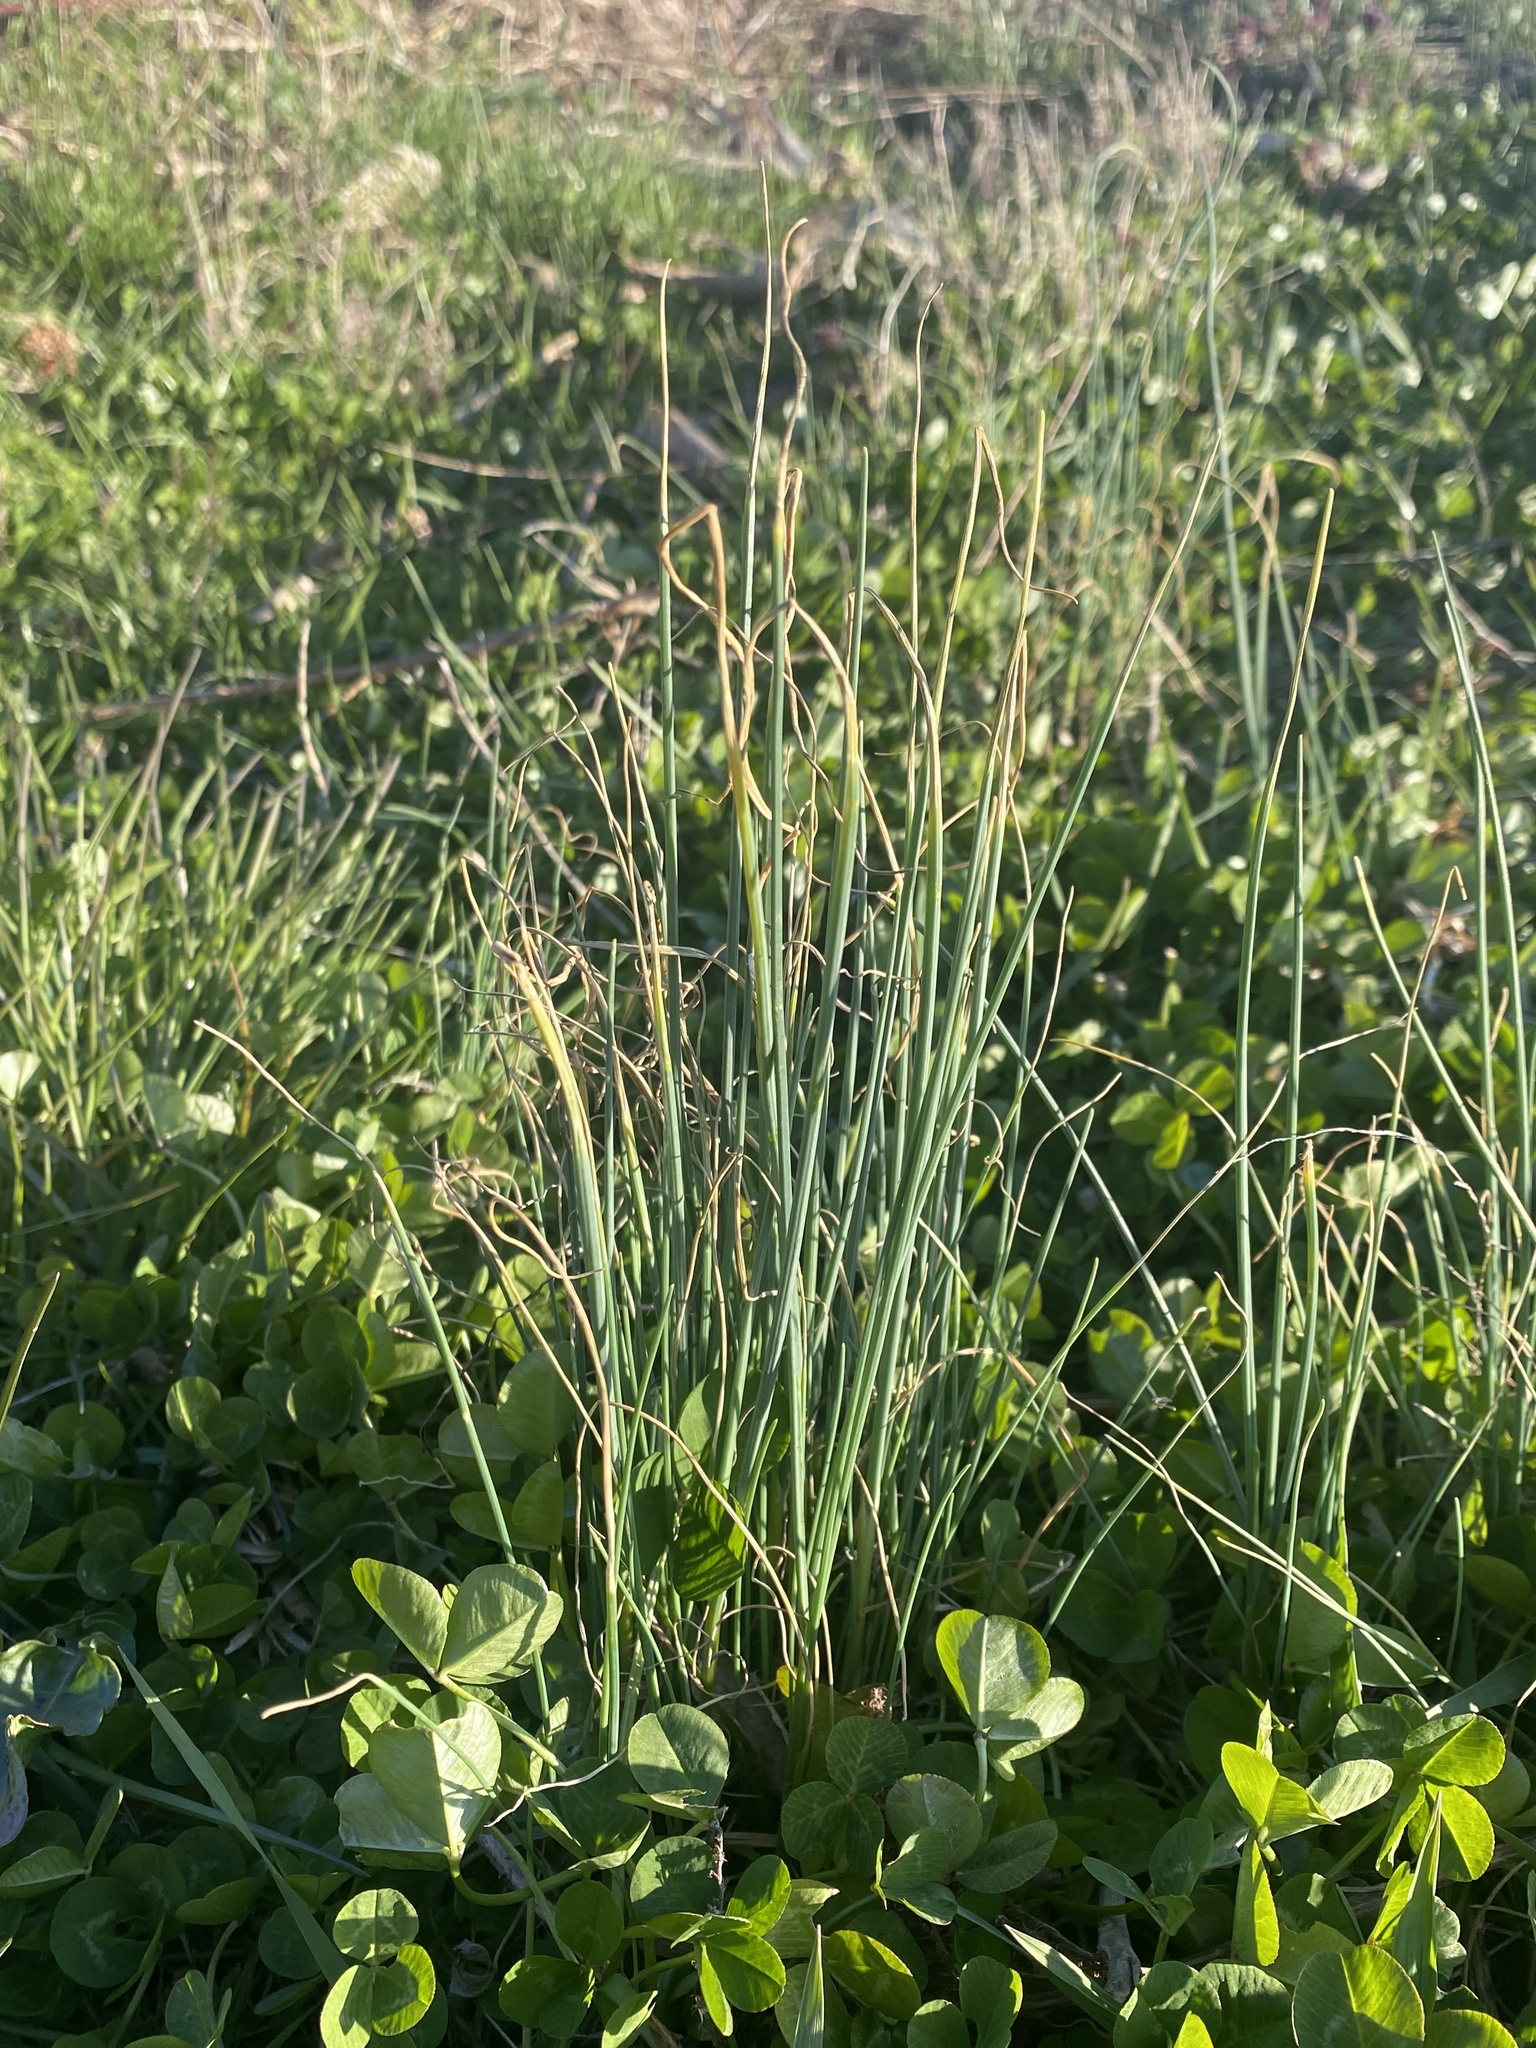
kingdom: Plantae
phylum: Tracheophyta
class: Liliopsida
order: Asparagales
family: Amaryllidaceae
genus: Allium
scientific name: Allium vineale
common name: Crow garlic
